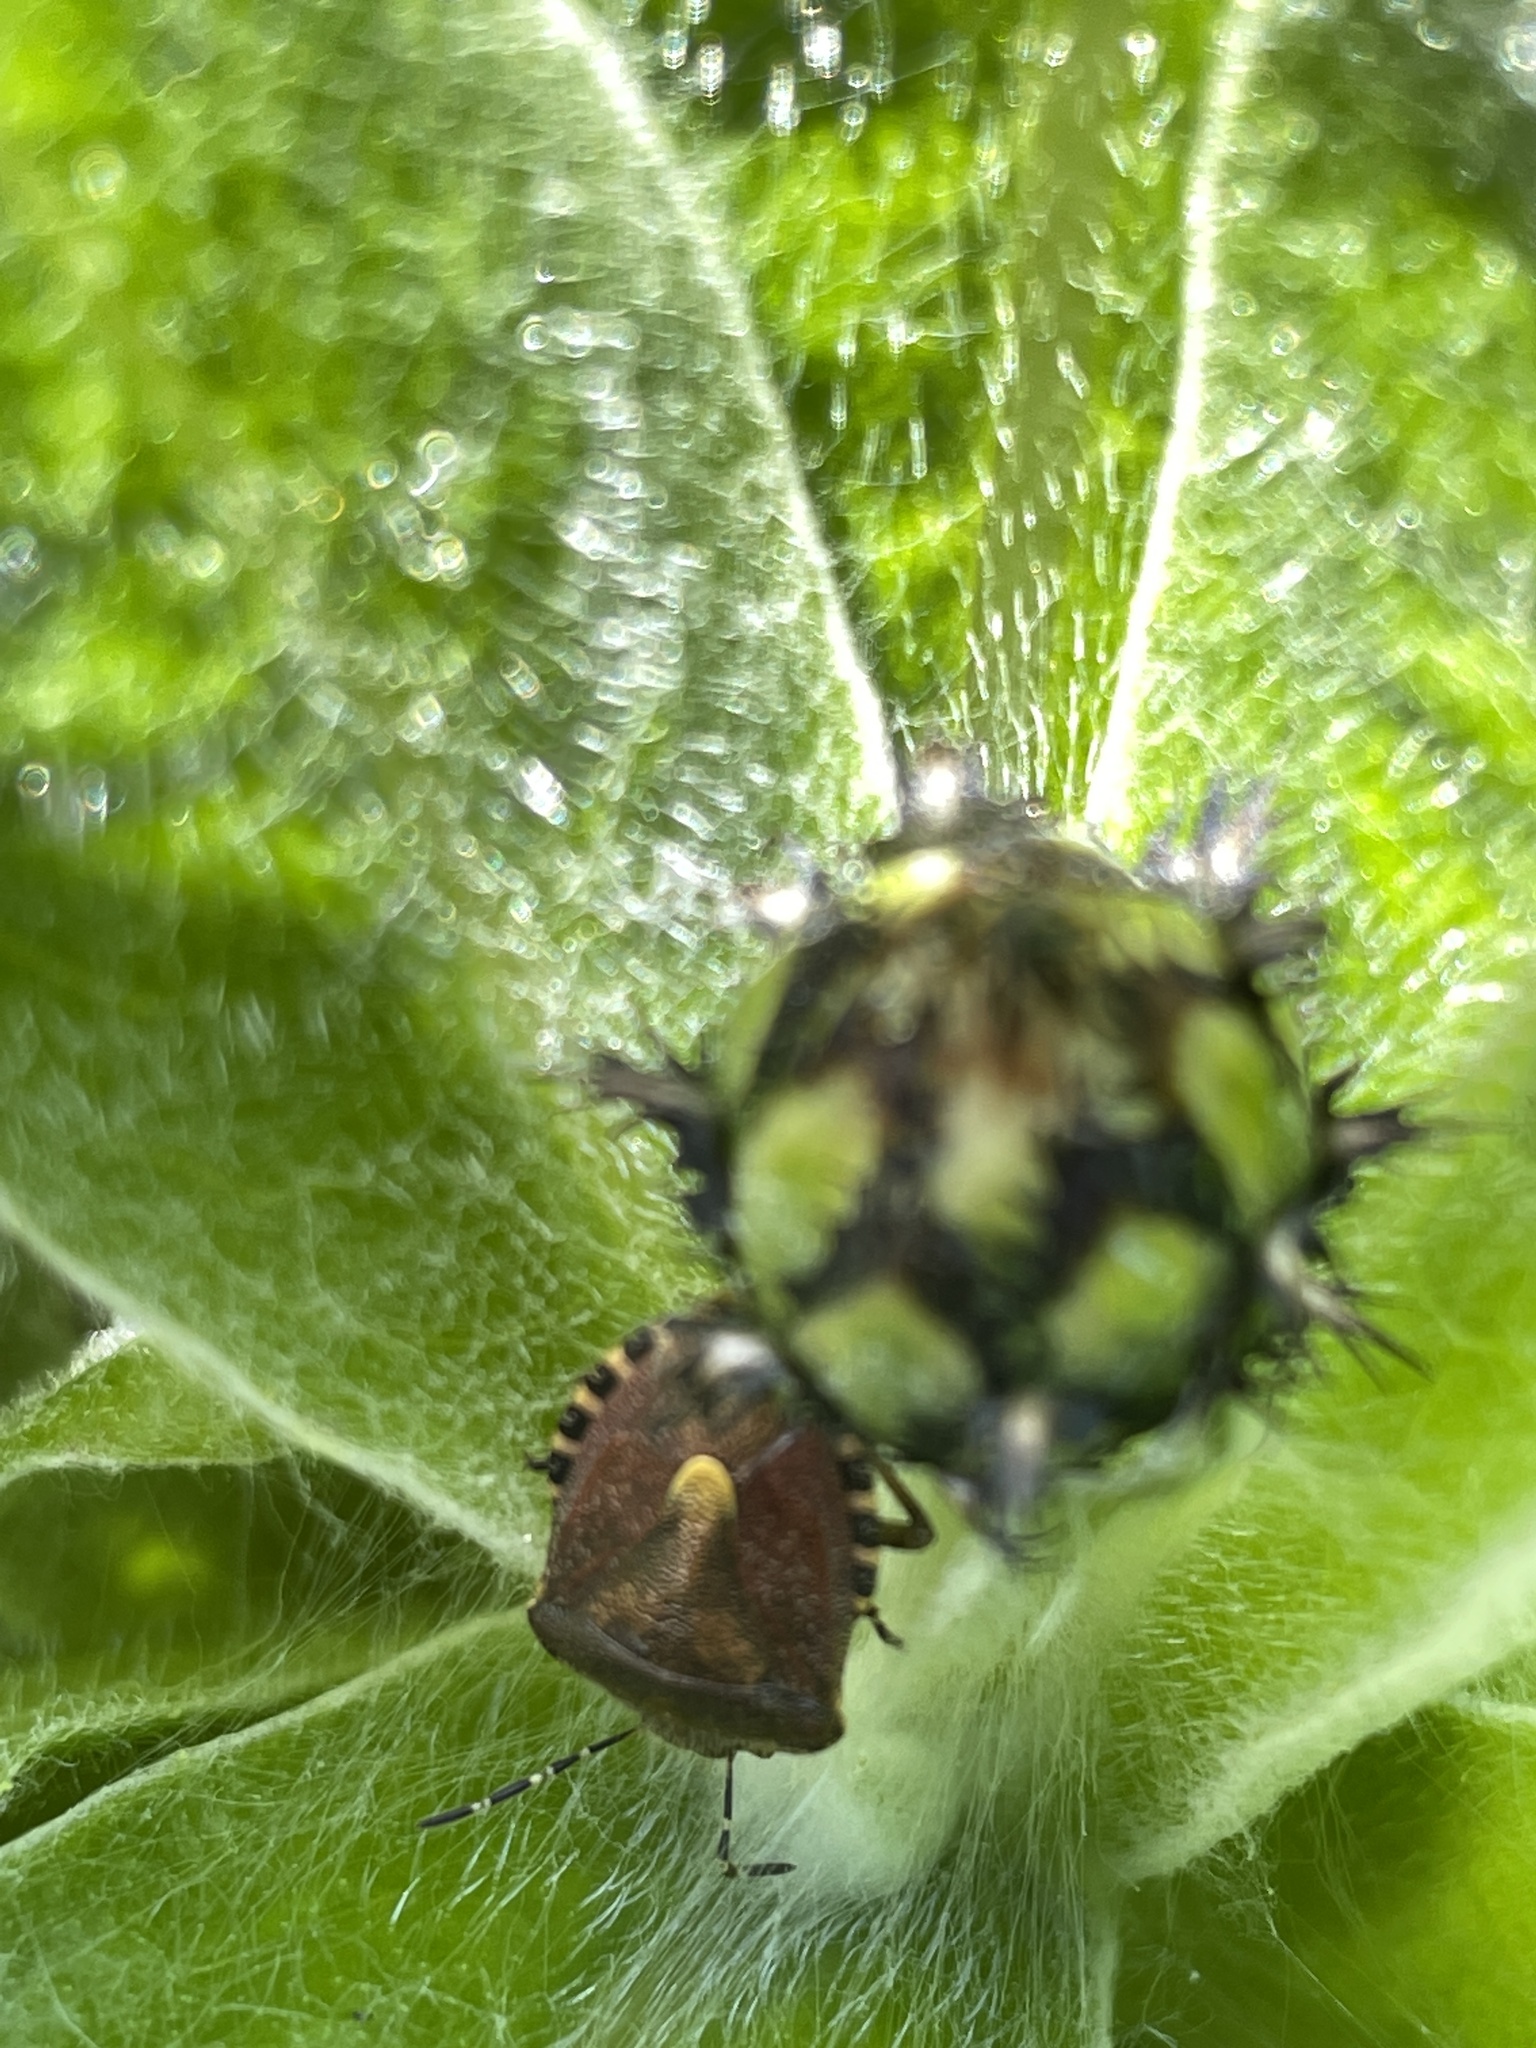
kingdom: Animalia
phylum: Arthropoda
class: Insecta
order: Hemiptera
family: Pentatomidae
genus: Dolycoris
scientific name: Dolycoris baccarum
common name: Sloe bug
